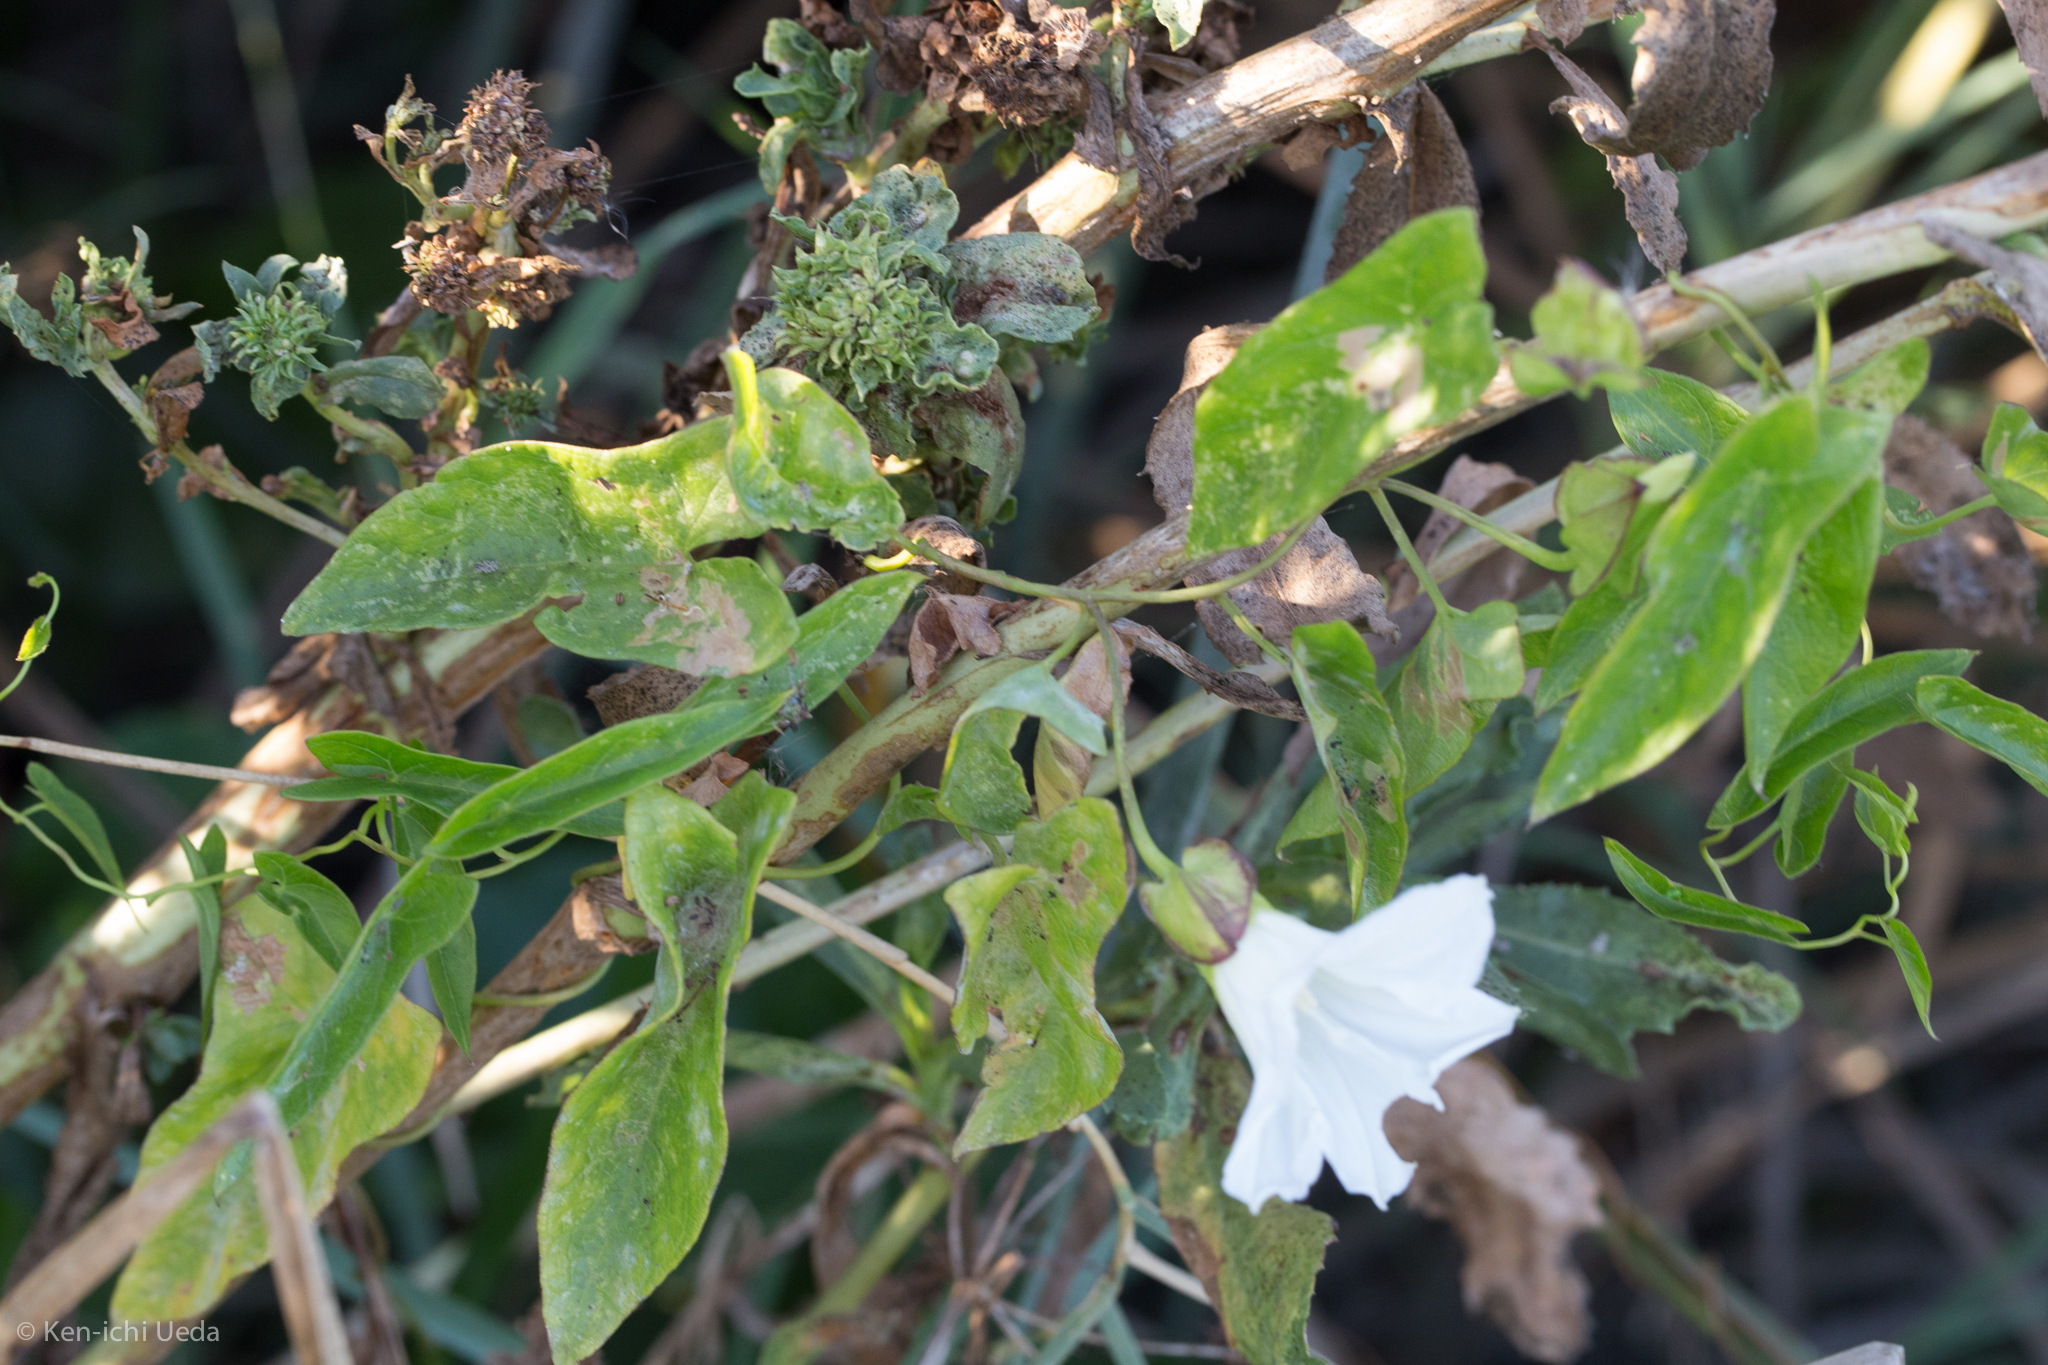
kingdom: Plantae
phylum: Tracheophyta
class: Magnoliopsida
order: Solanales
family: Convolvulaceae
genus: Calystegia
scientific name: Calystegia sepium
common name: Hedge bindweed
